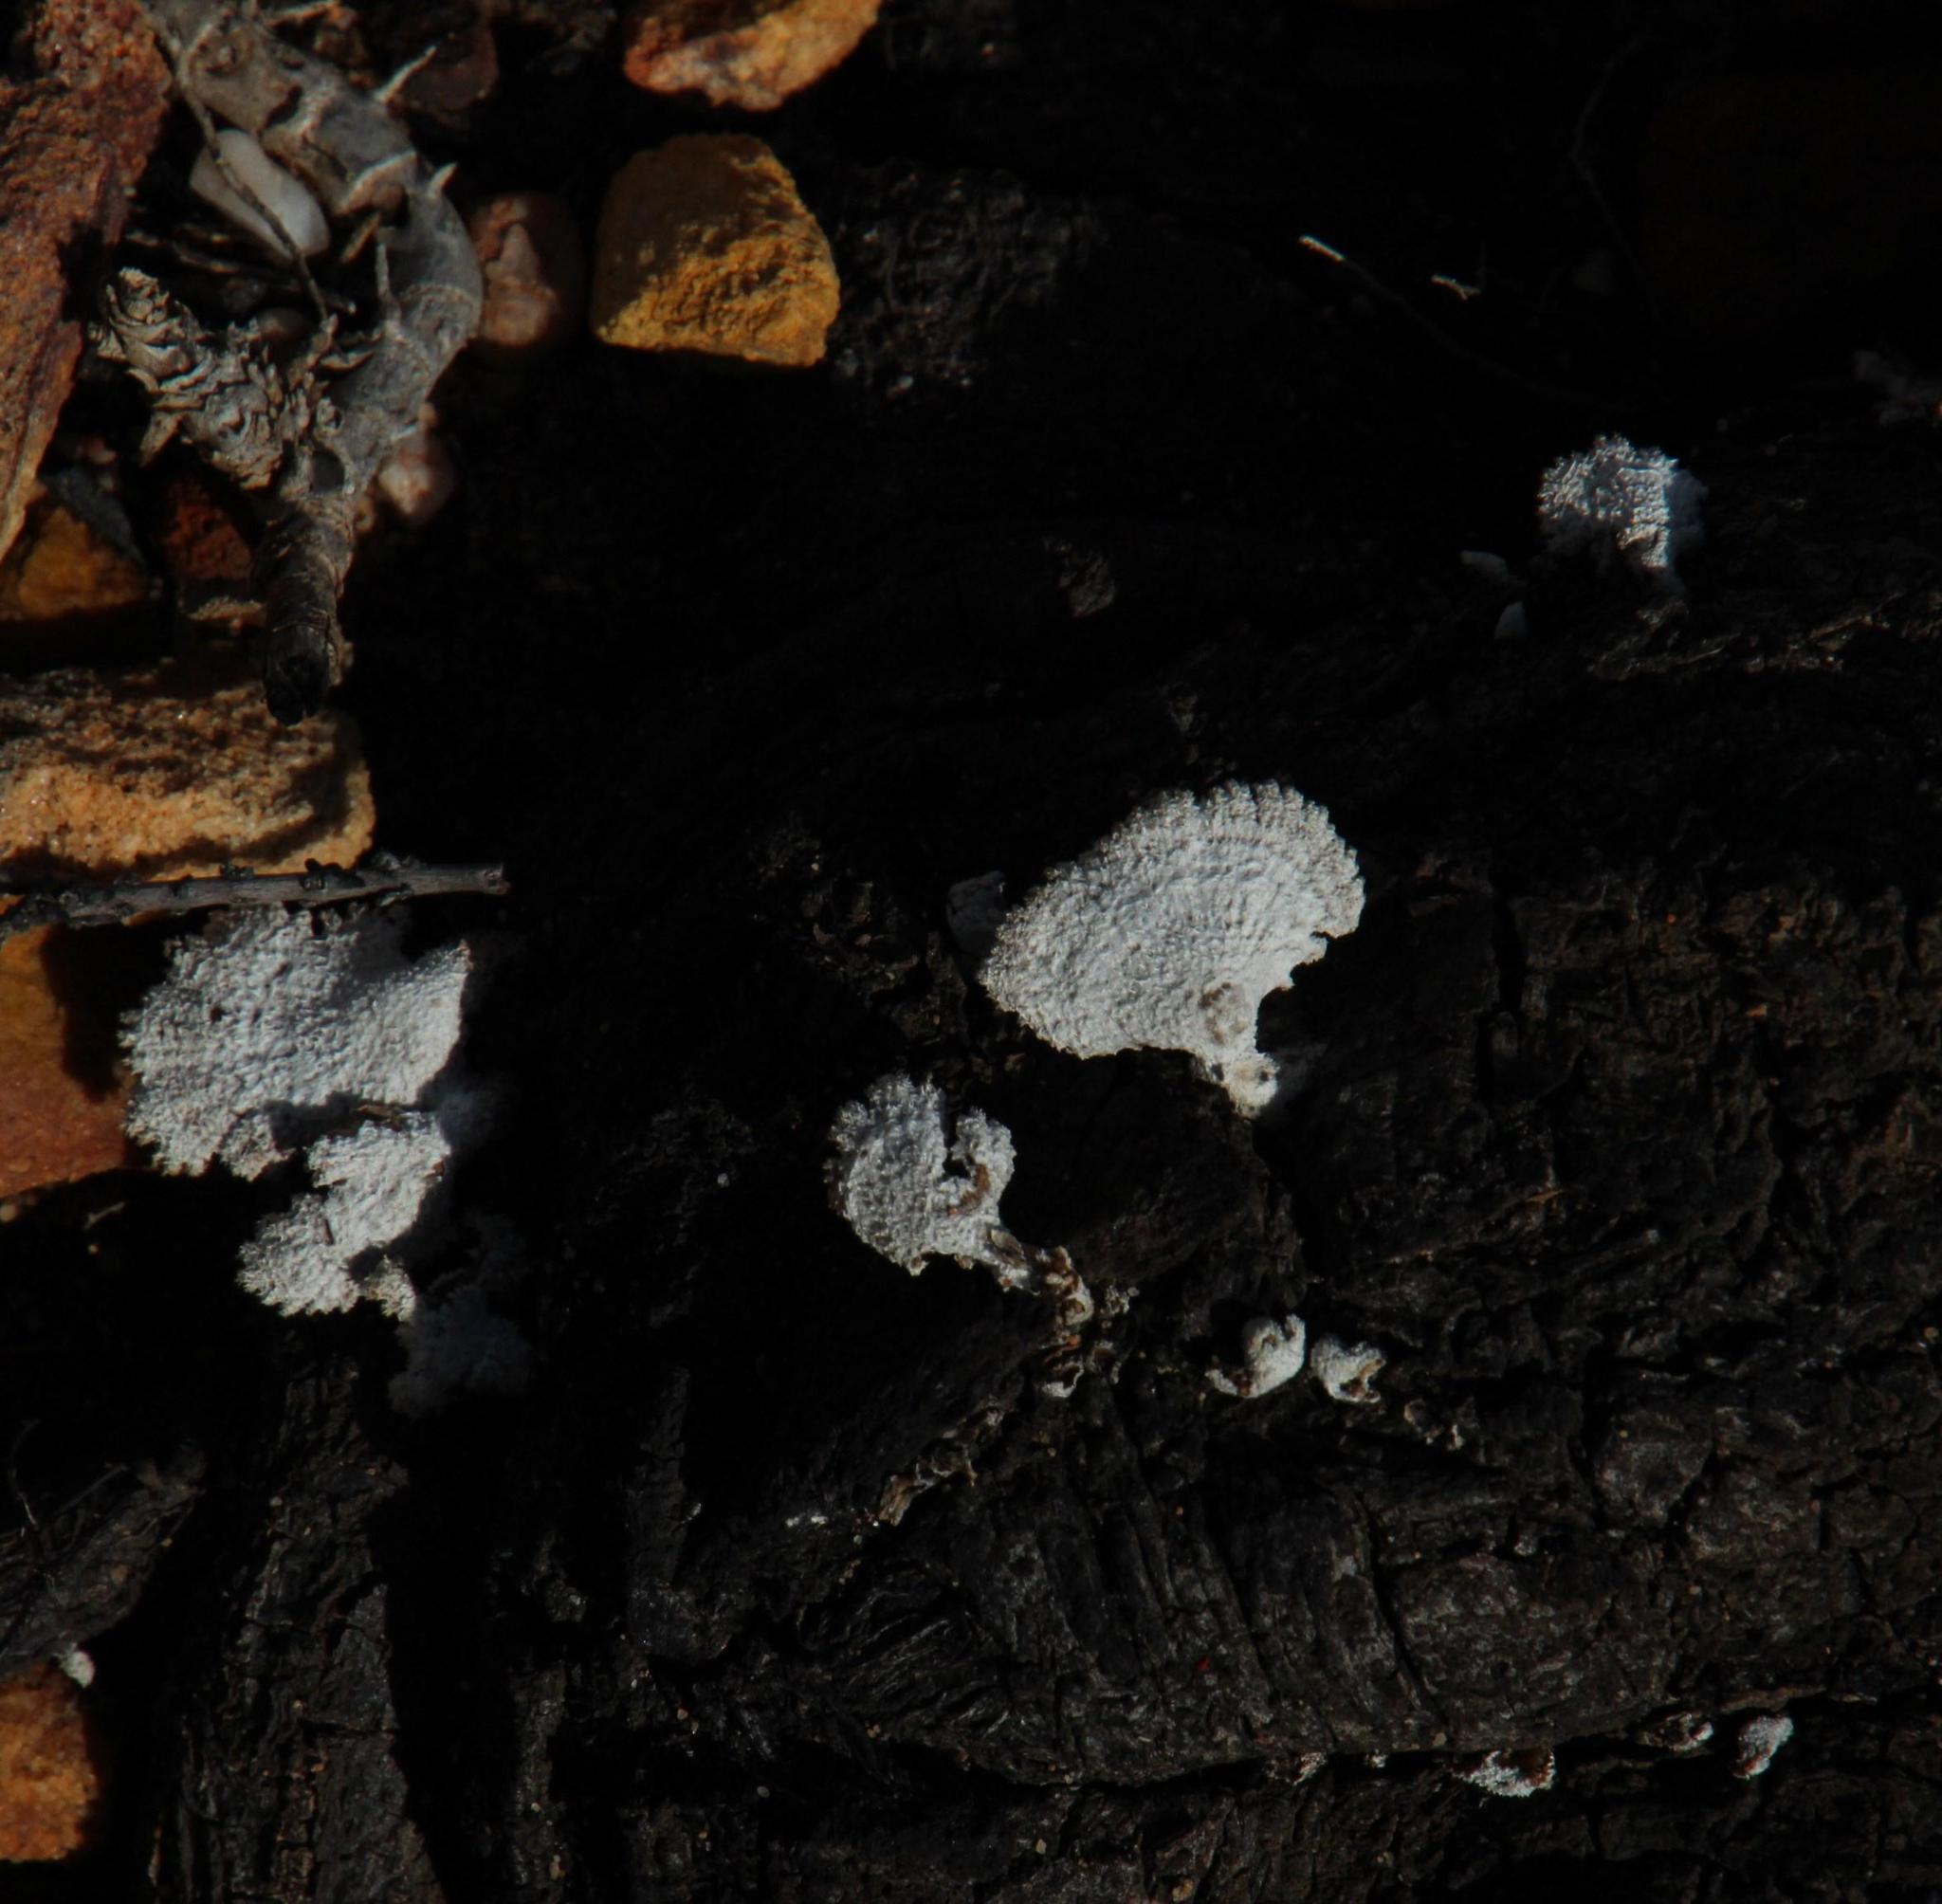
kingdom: Fungi
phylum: Basidiomycota
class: Agaricomycetes
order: Agaricales
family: Schizophyllaceae
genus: Schizophyllum
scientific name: Schizophyllum commune
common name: Common porecrust
